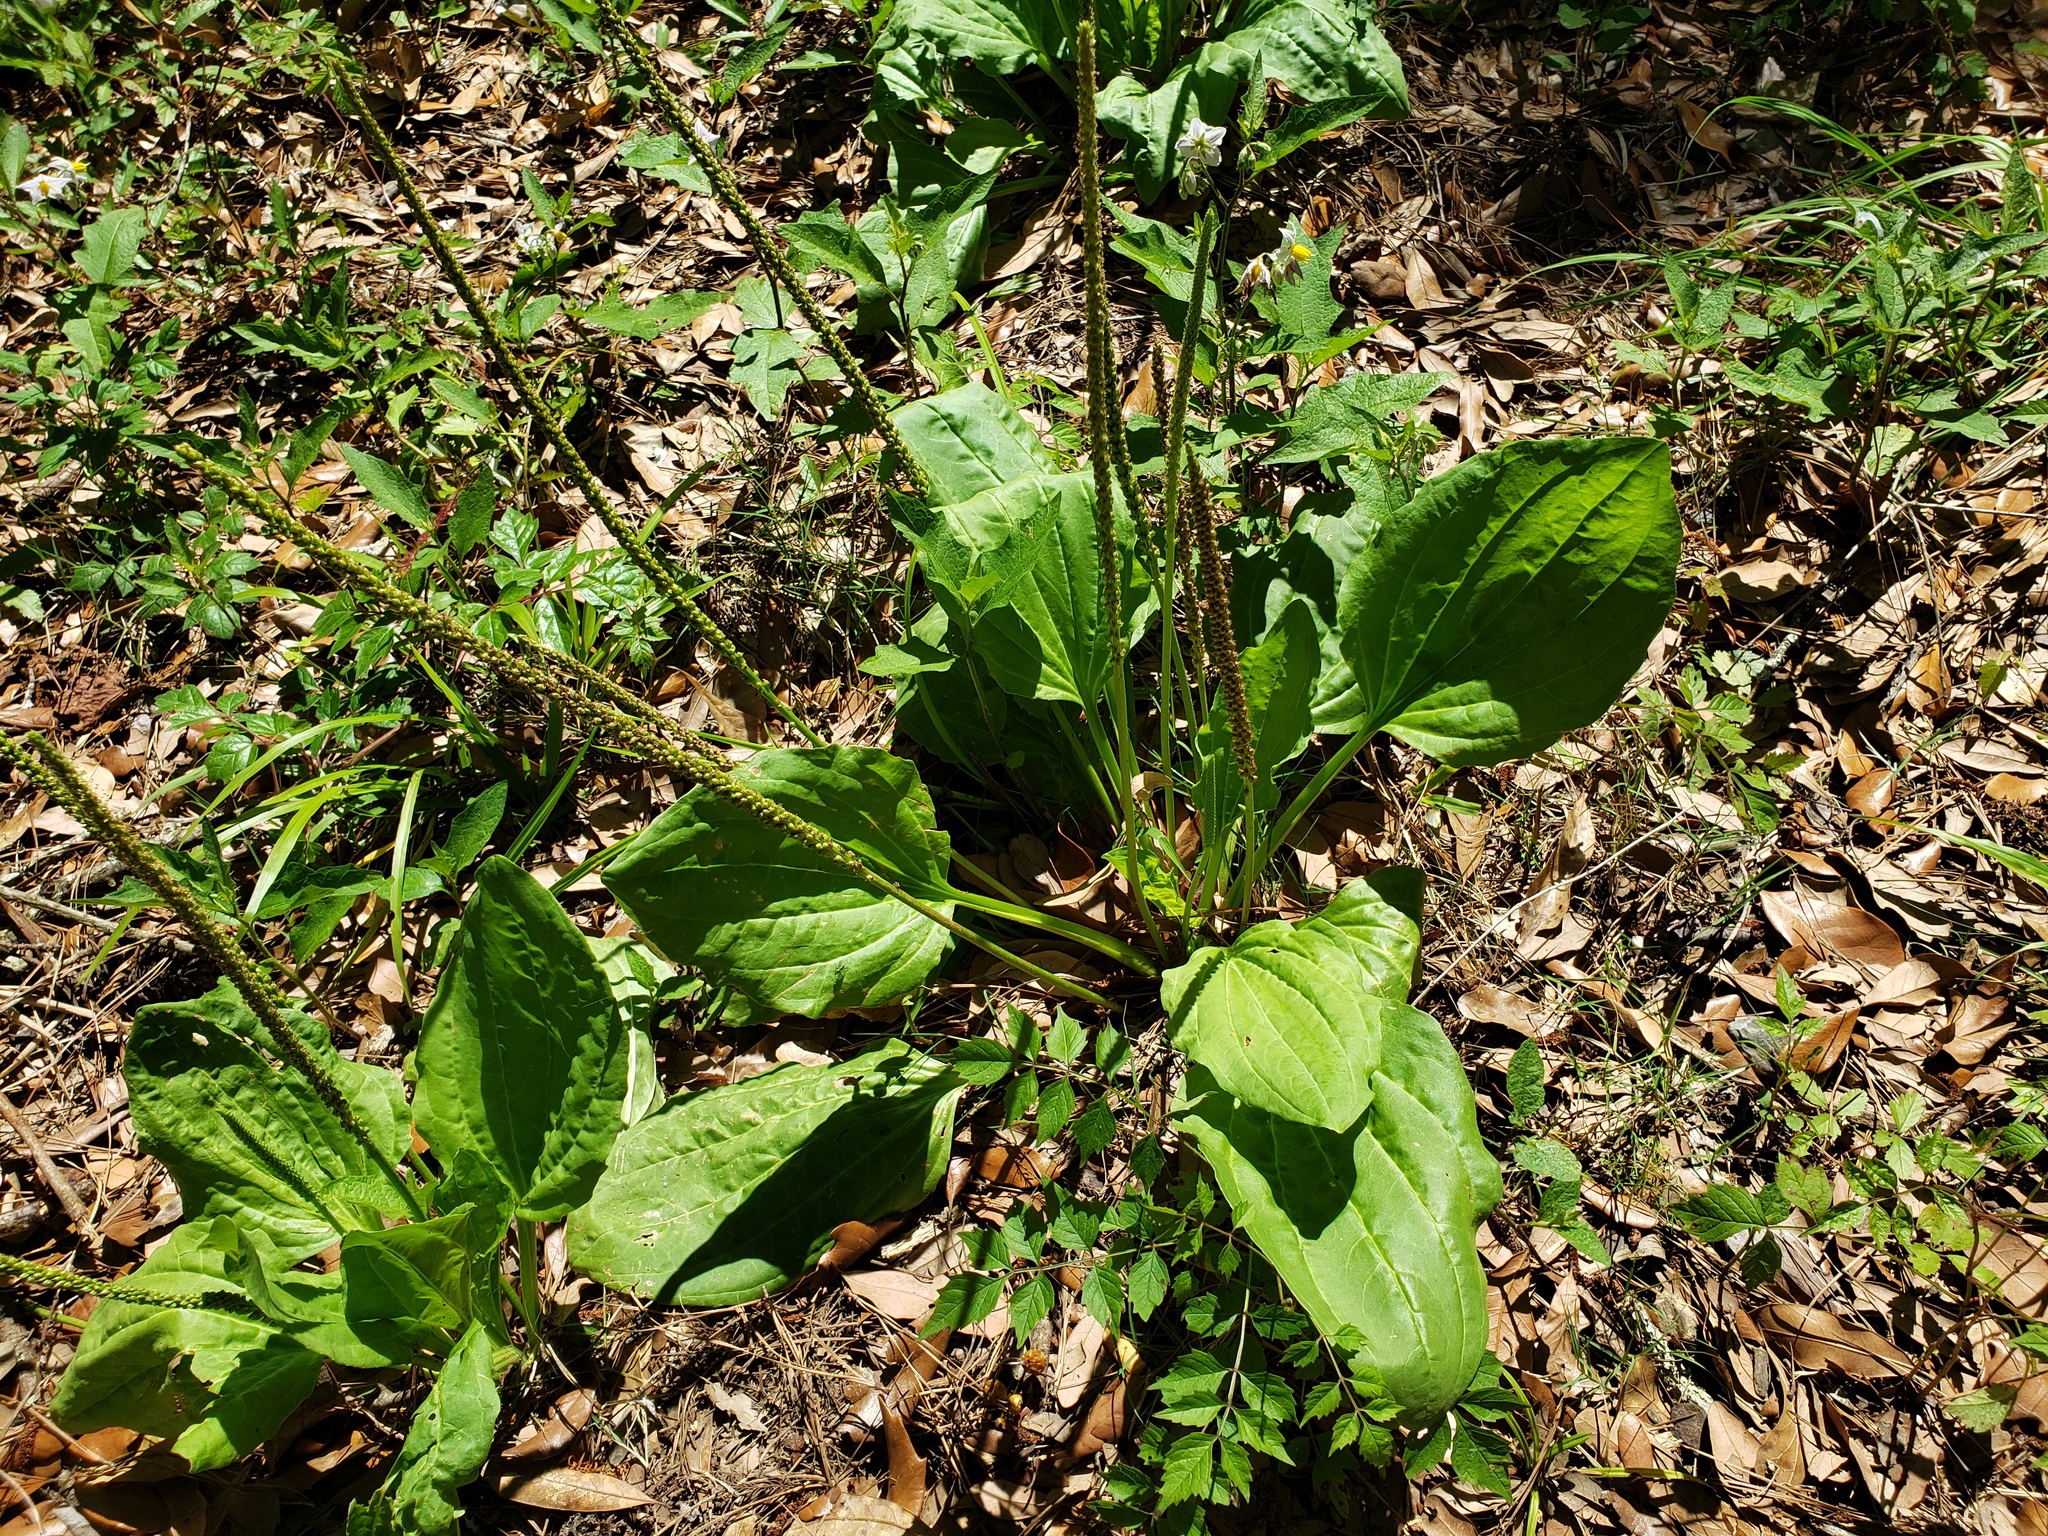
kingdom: Plantae
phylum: Tracheophyta
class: Magnoliopsida
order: Lamiales
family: Plantaginaceae
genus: Plantago
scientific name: Plantago major
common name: Common plantain
